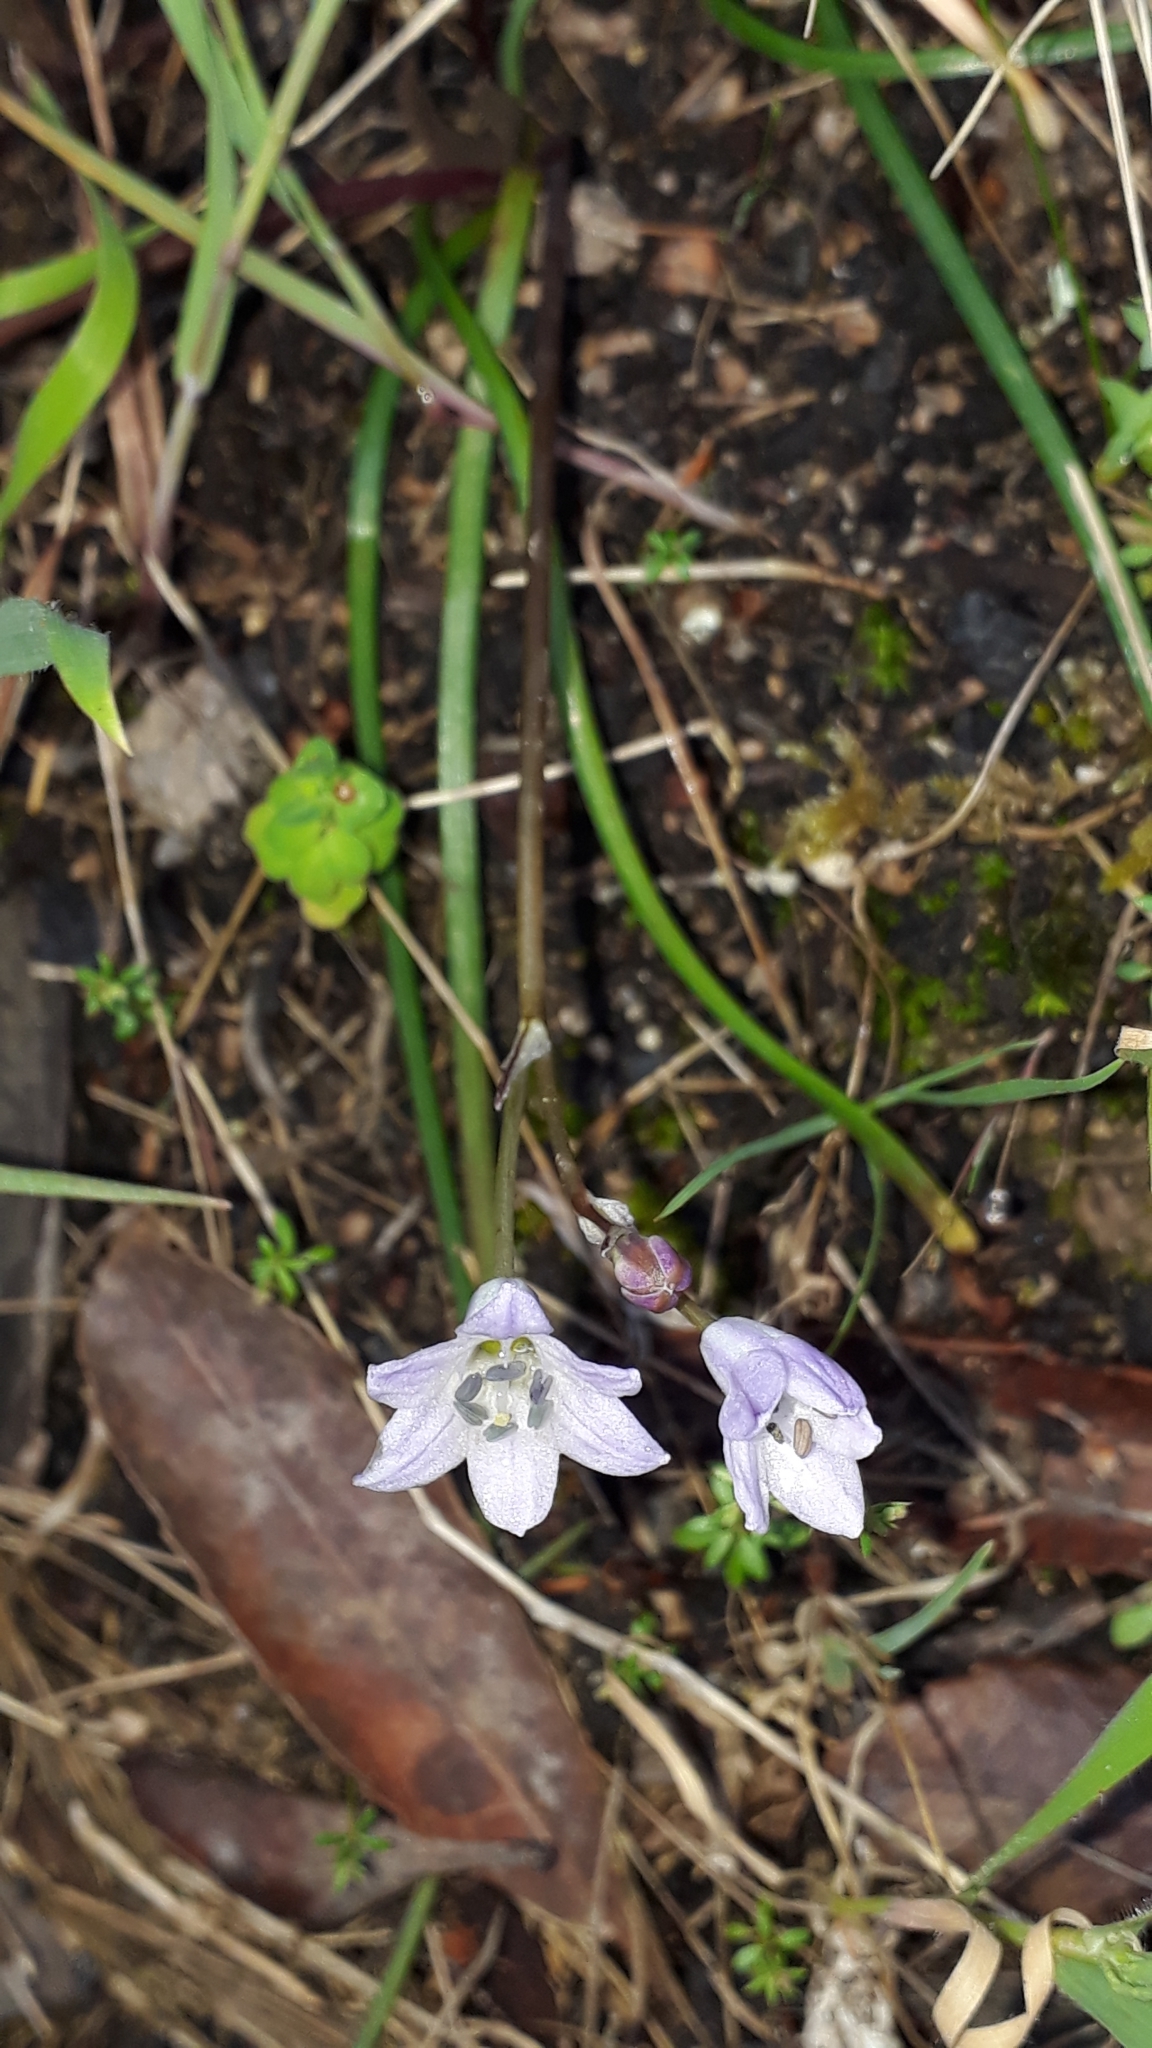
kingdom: Plantae
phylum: Tracheophyta
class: Liliopsida
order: Asparagales
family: Asparagaceae
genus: Brimeura
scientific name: Brimeura fastigiata
